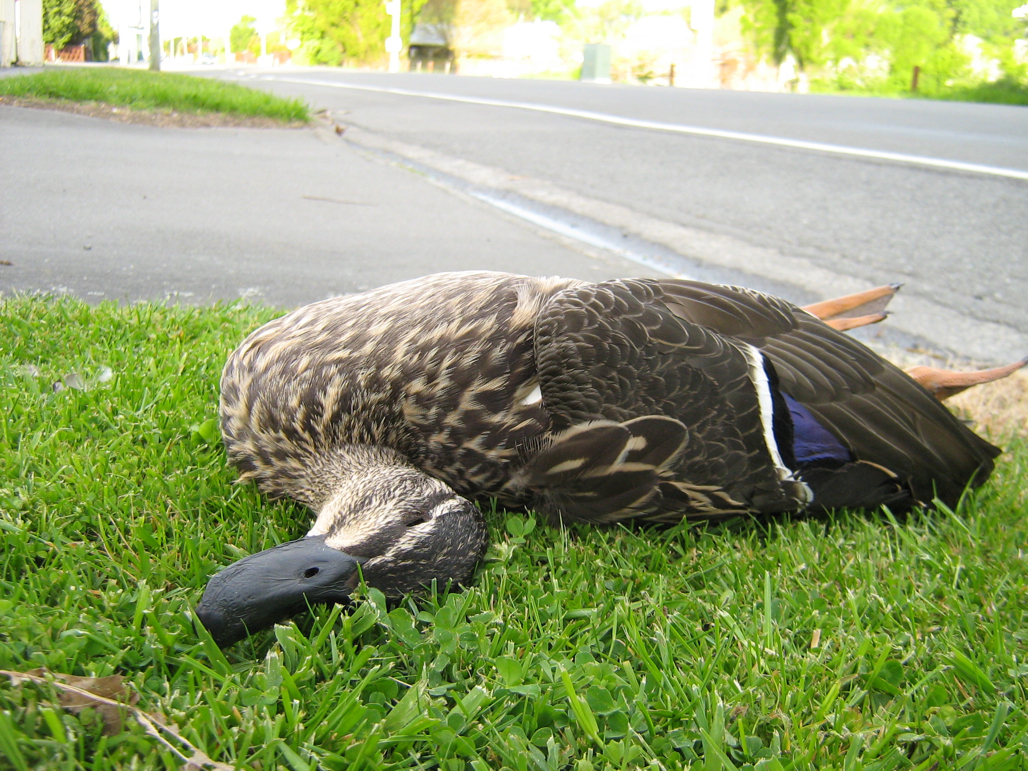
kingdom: Animalia
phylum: Chordata
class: Aves
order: Anseriformes
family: Anatidae
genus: Anas
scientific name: Anas
